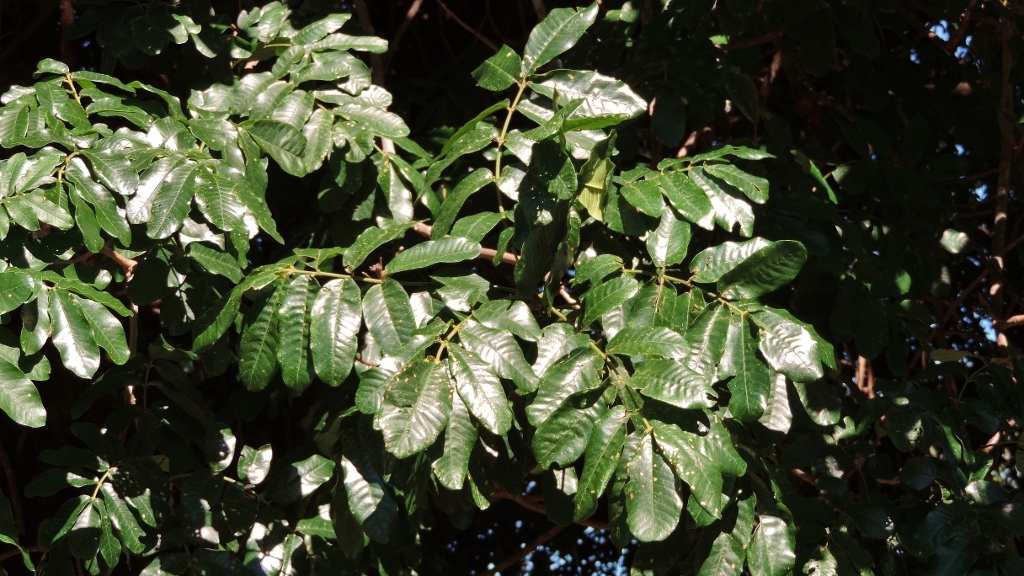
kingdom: Plantae
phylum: Tracheophyta
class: Magnoliopsida
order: Sapindales
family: Meliaceae
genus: Trichilia
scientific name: Trichilia emetica
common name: Christmas-bells
